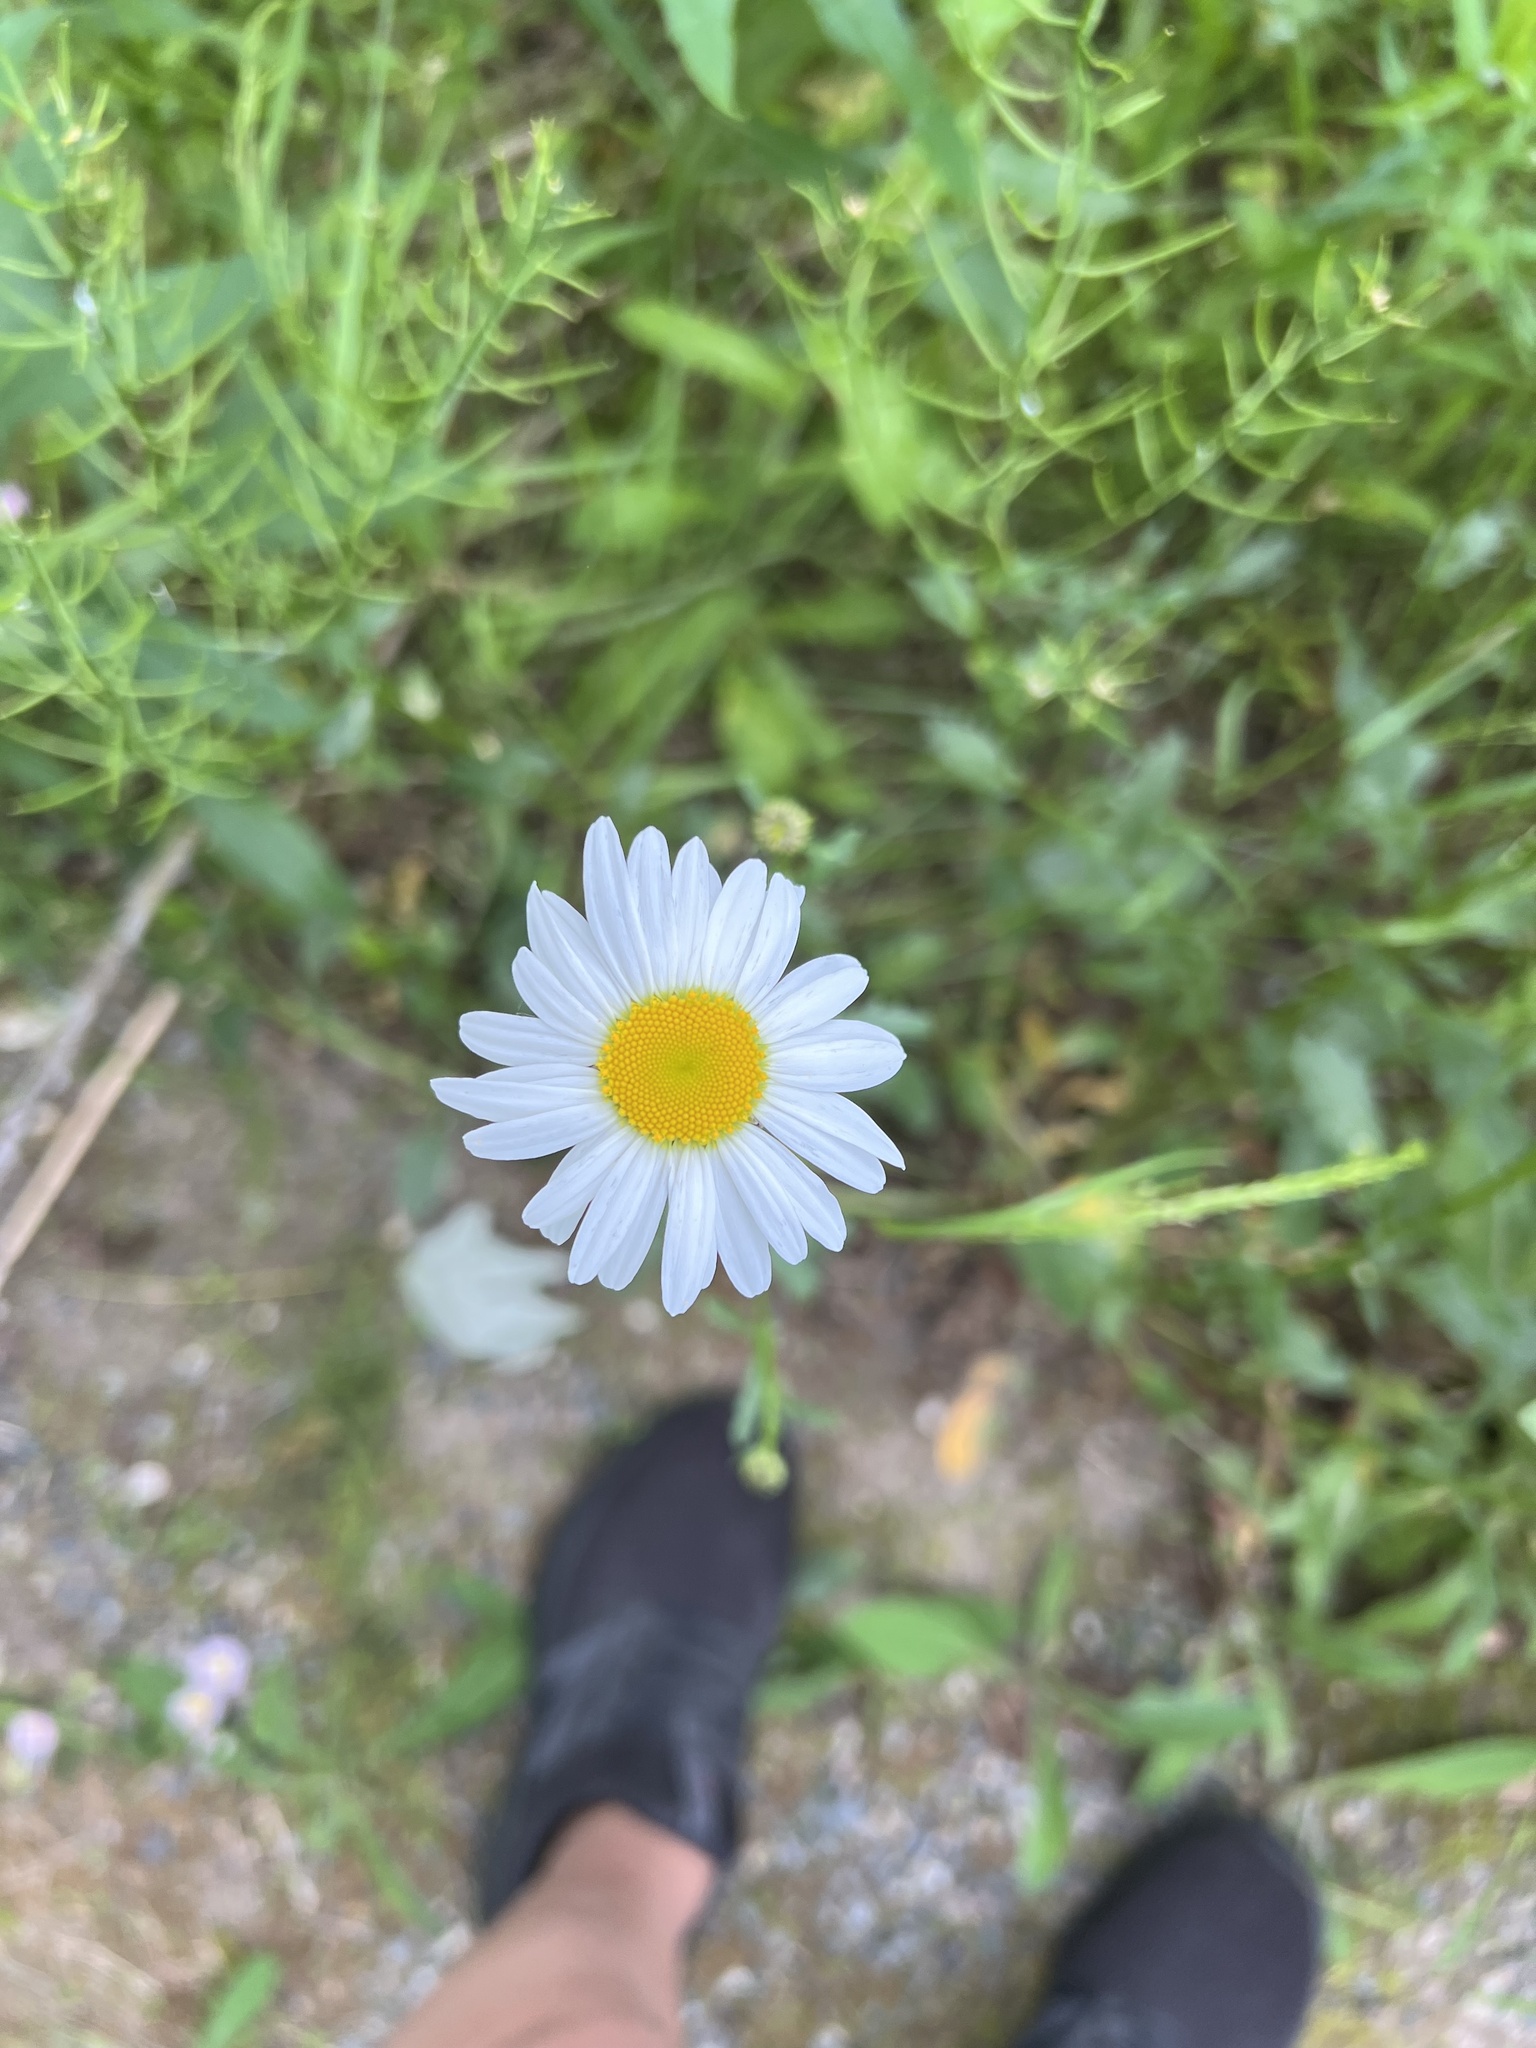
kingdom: Plantae
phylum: Tracheophyta
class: Magnoliopsida
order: Asterales
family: Asteraceae
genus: Leucanthemum
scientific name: Leucanthemum vulgare
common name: Oxeye daisy
